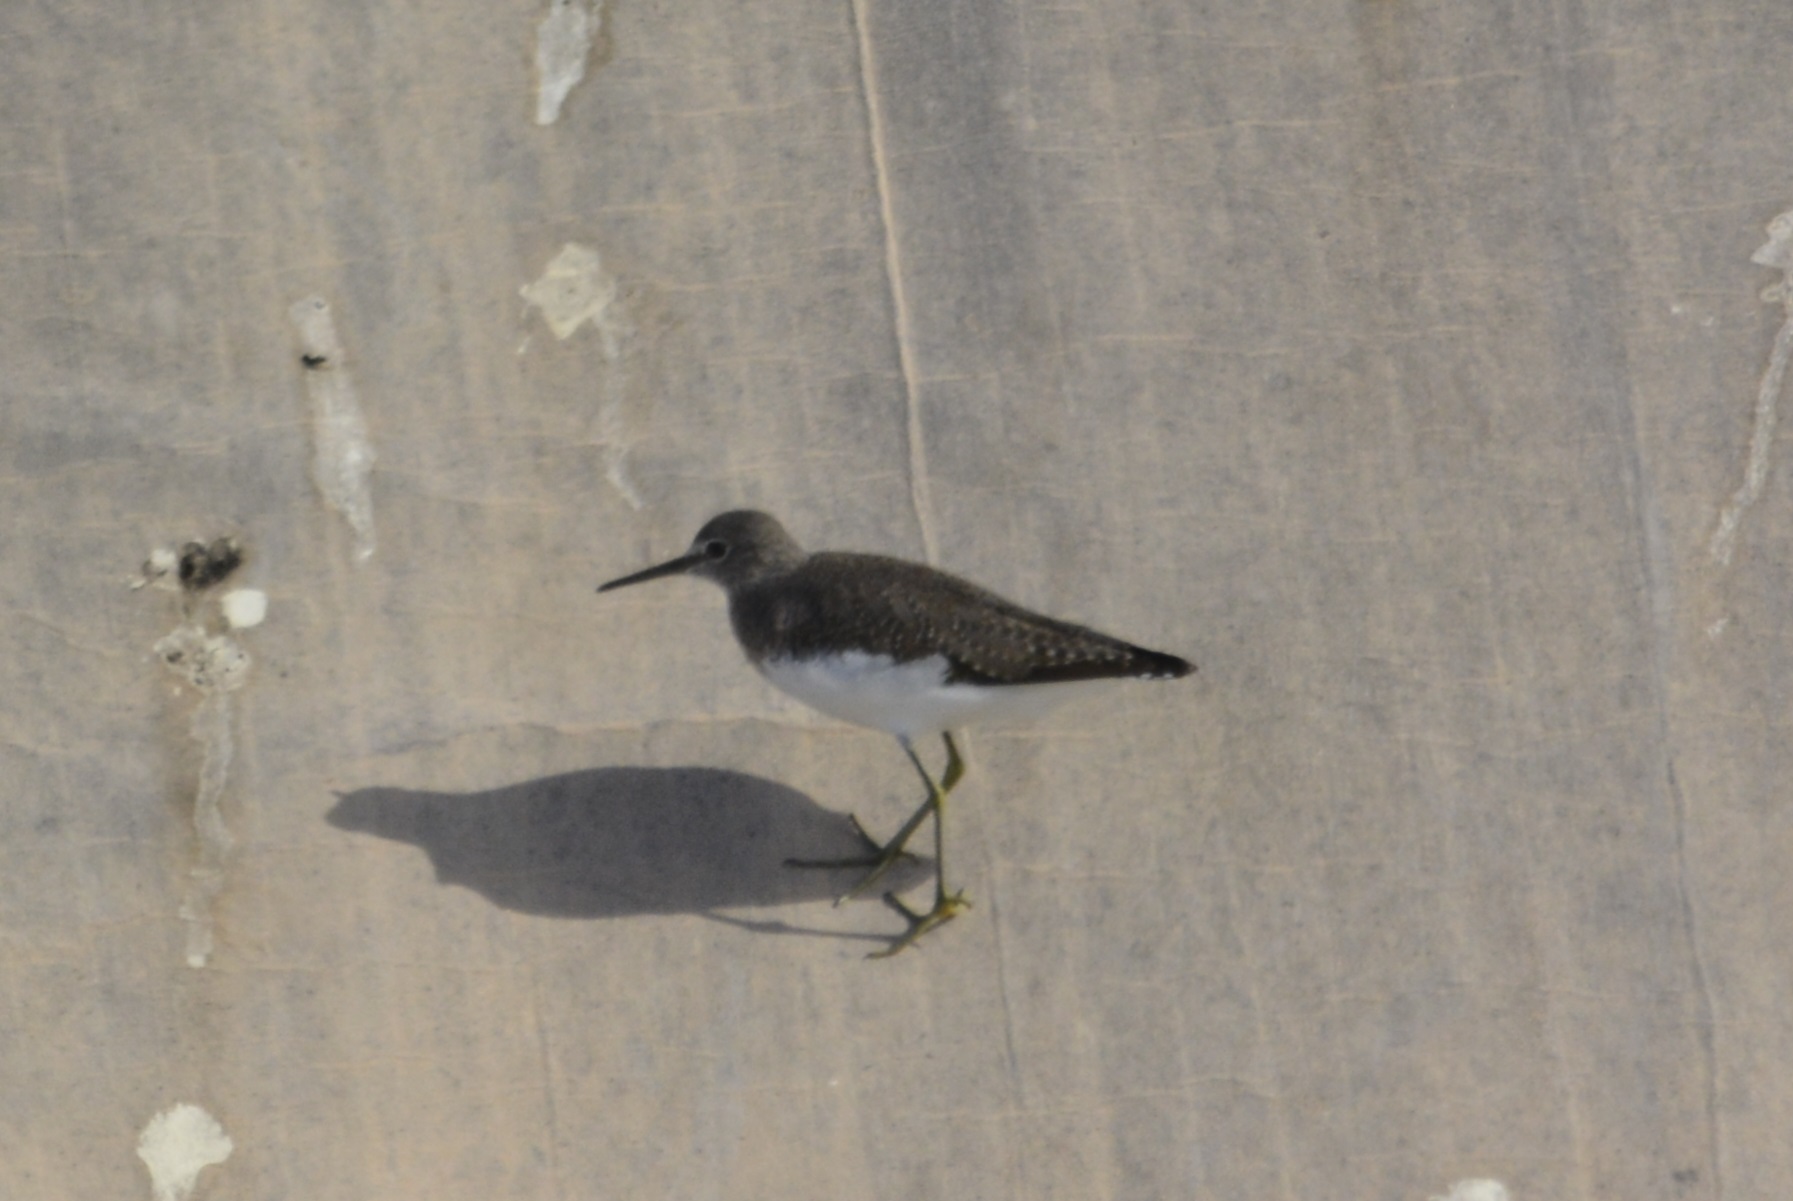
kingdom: Animalia
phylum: Chordata
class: Aves
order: Charadriiformes
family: Scolopacidae
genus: Tringa
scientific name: Tringa ochropus
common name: Green sandpiper
